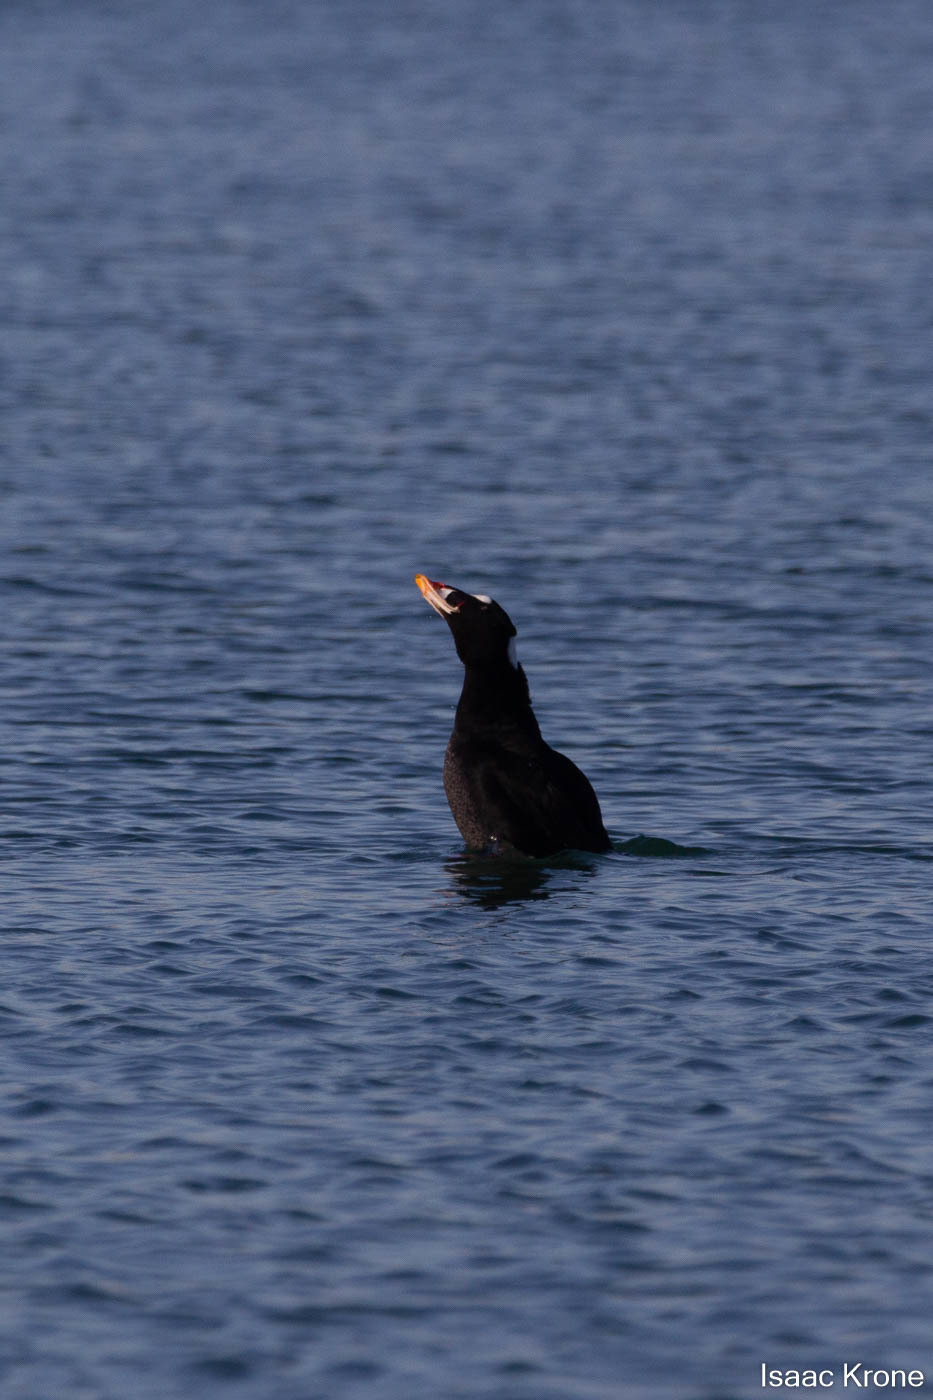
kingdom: Animalia
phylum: Chordata
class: Aves
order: Anseriformes
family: Anatidae
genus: Melanitta
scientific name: Melanitta perspicillata
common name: Surf scoter
